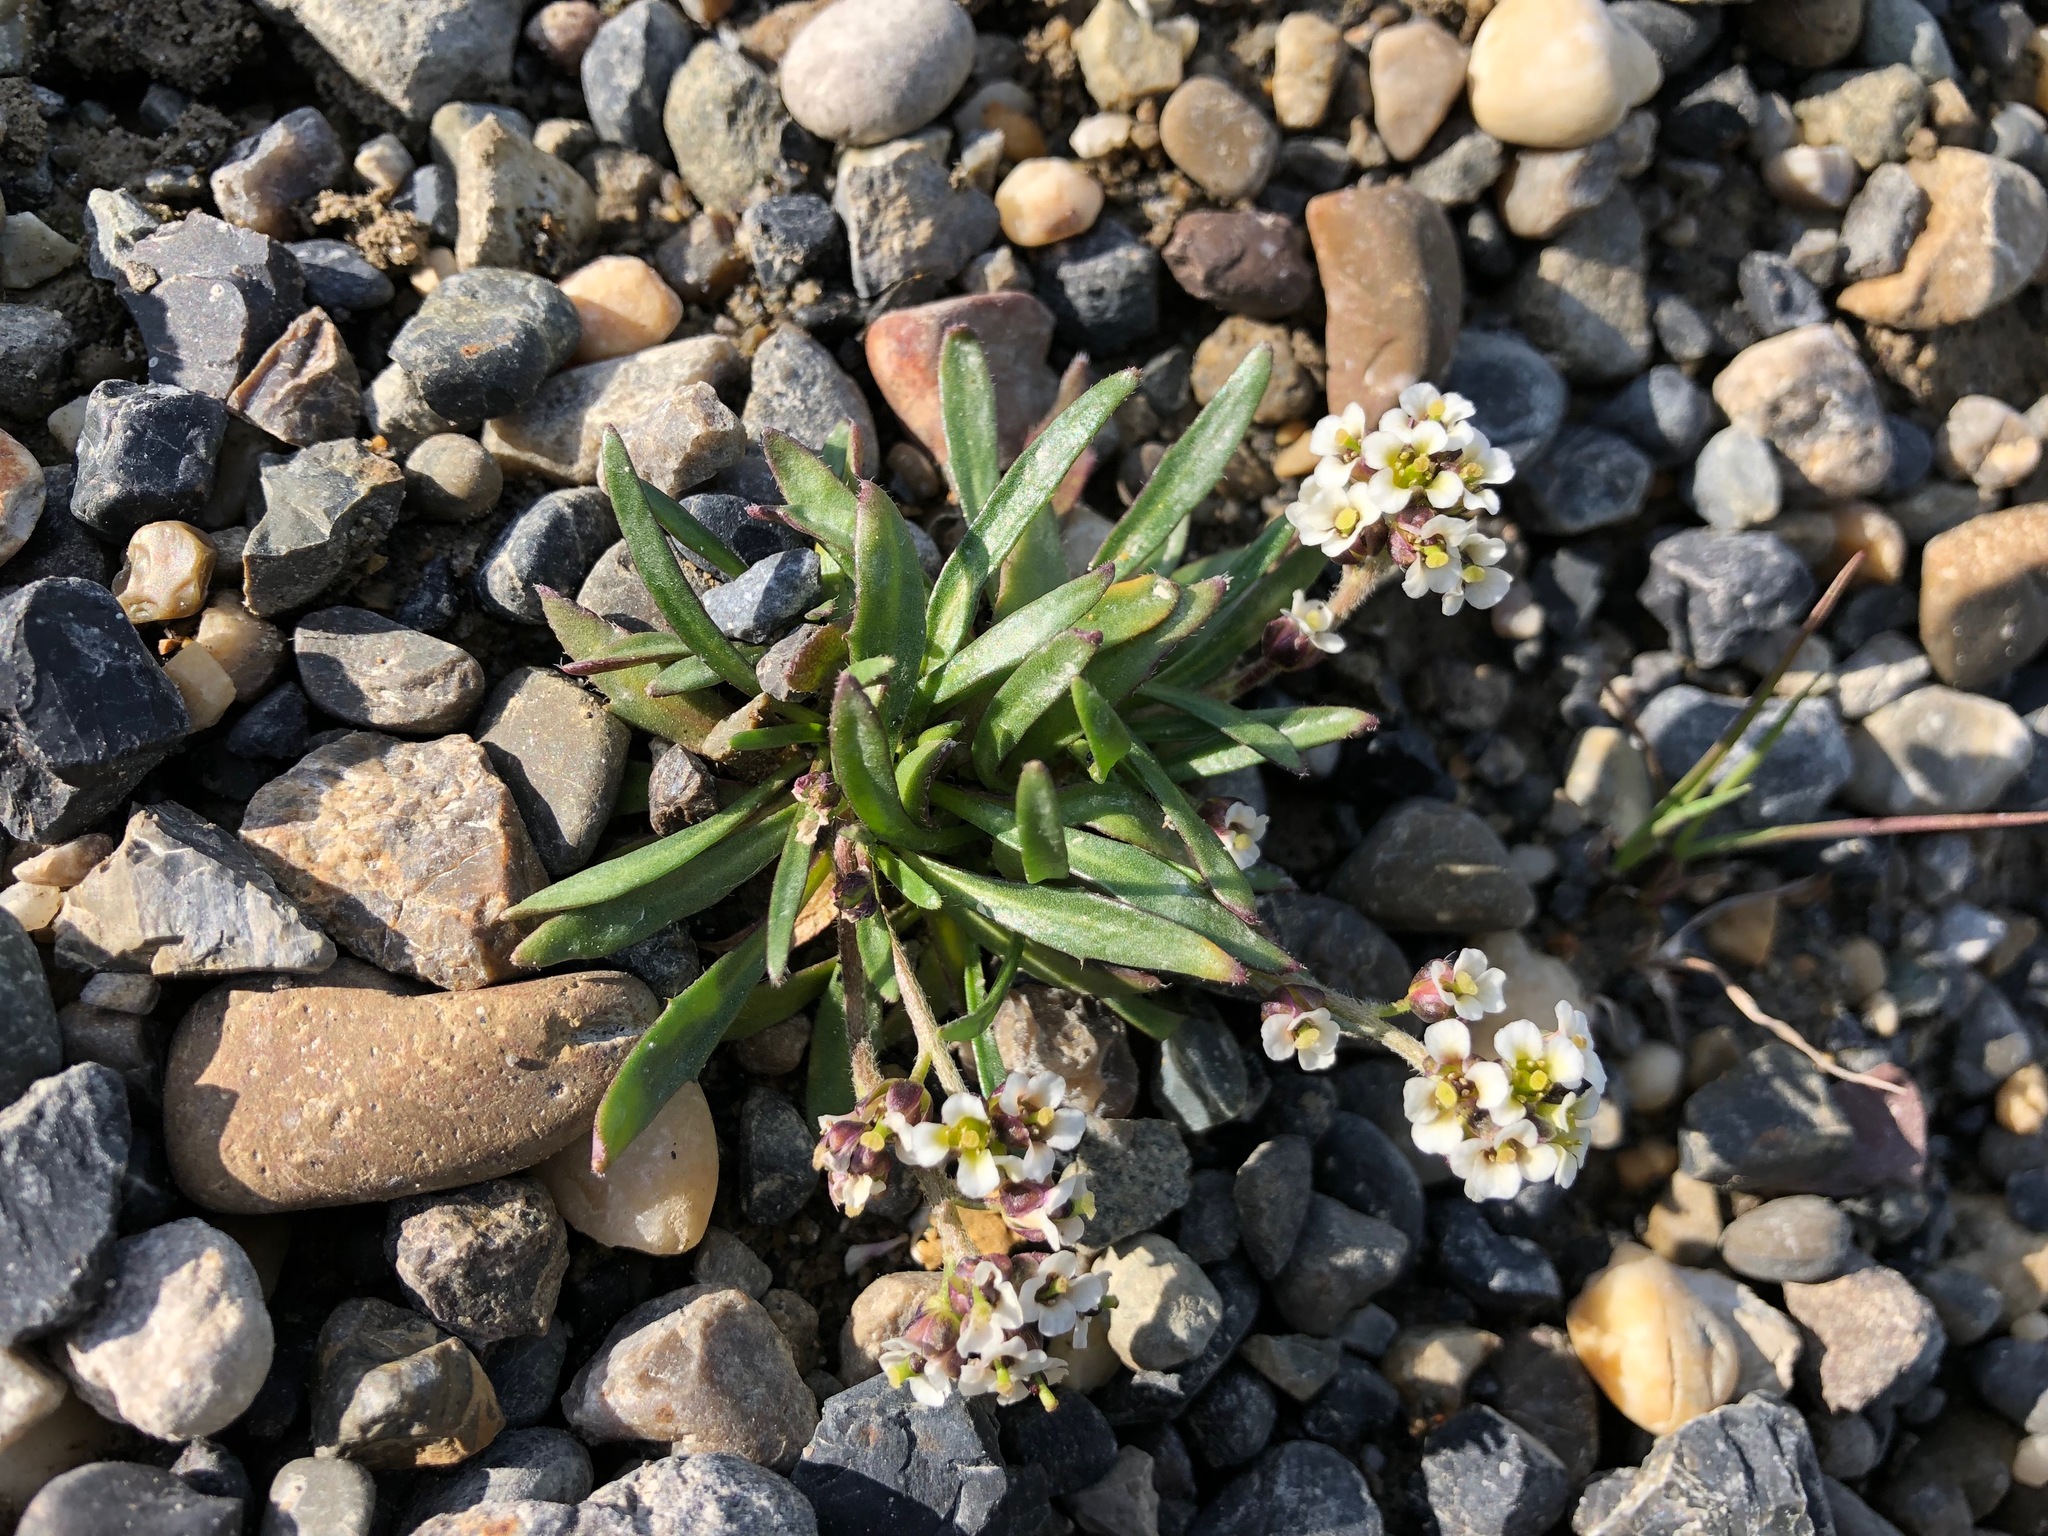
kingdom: Plantae
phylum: Tracheophyta
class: Magnoliopsida
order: Brassicales
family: Brassicaceae
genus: Braya
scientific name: Braya purpurascens
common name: Alpine braya
